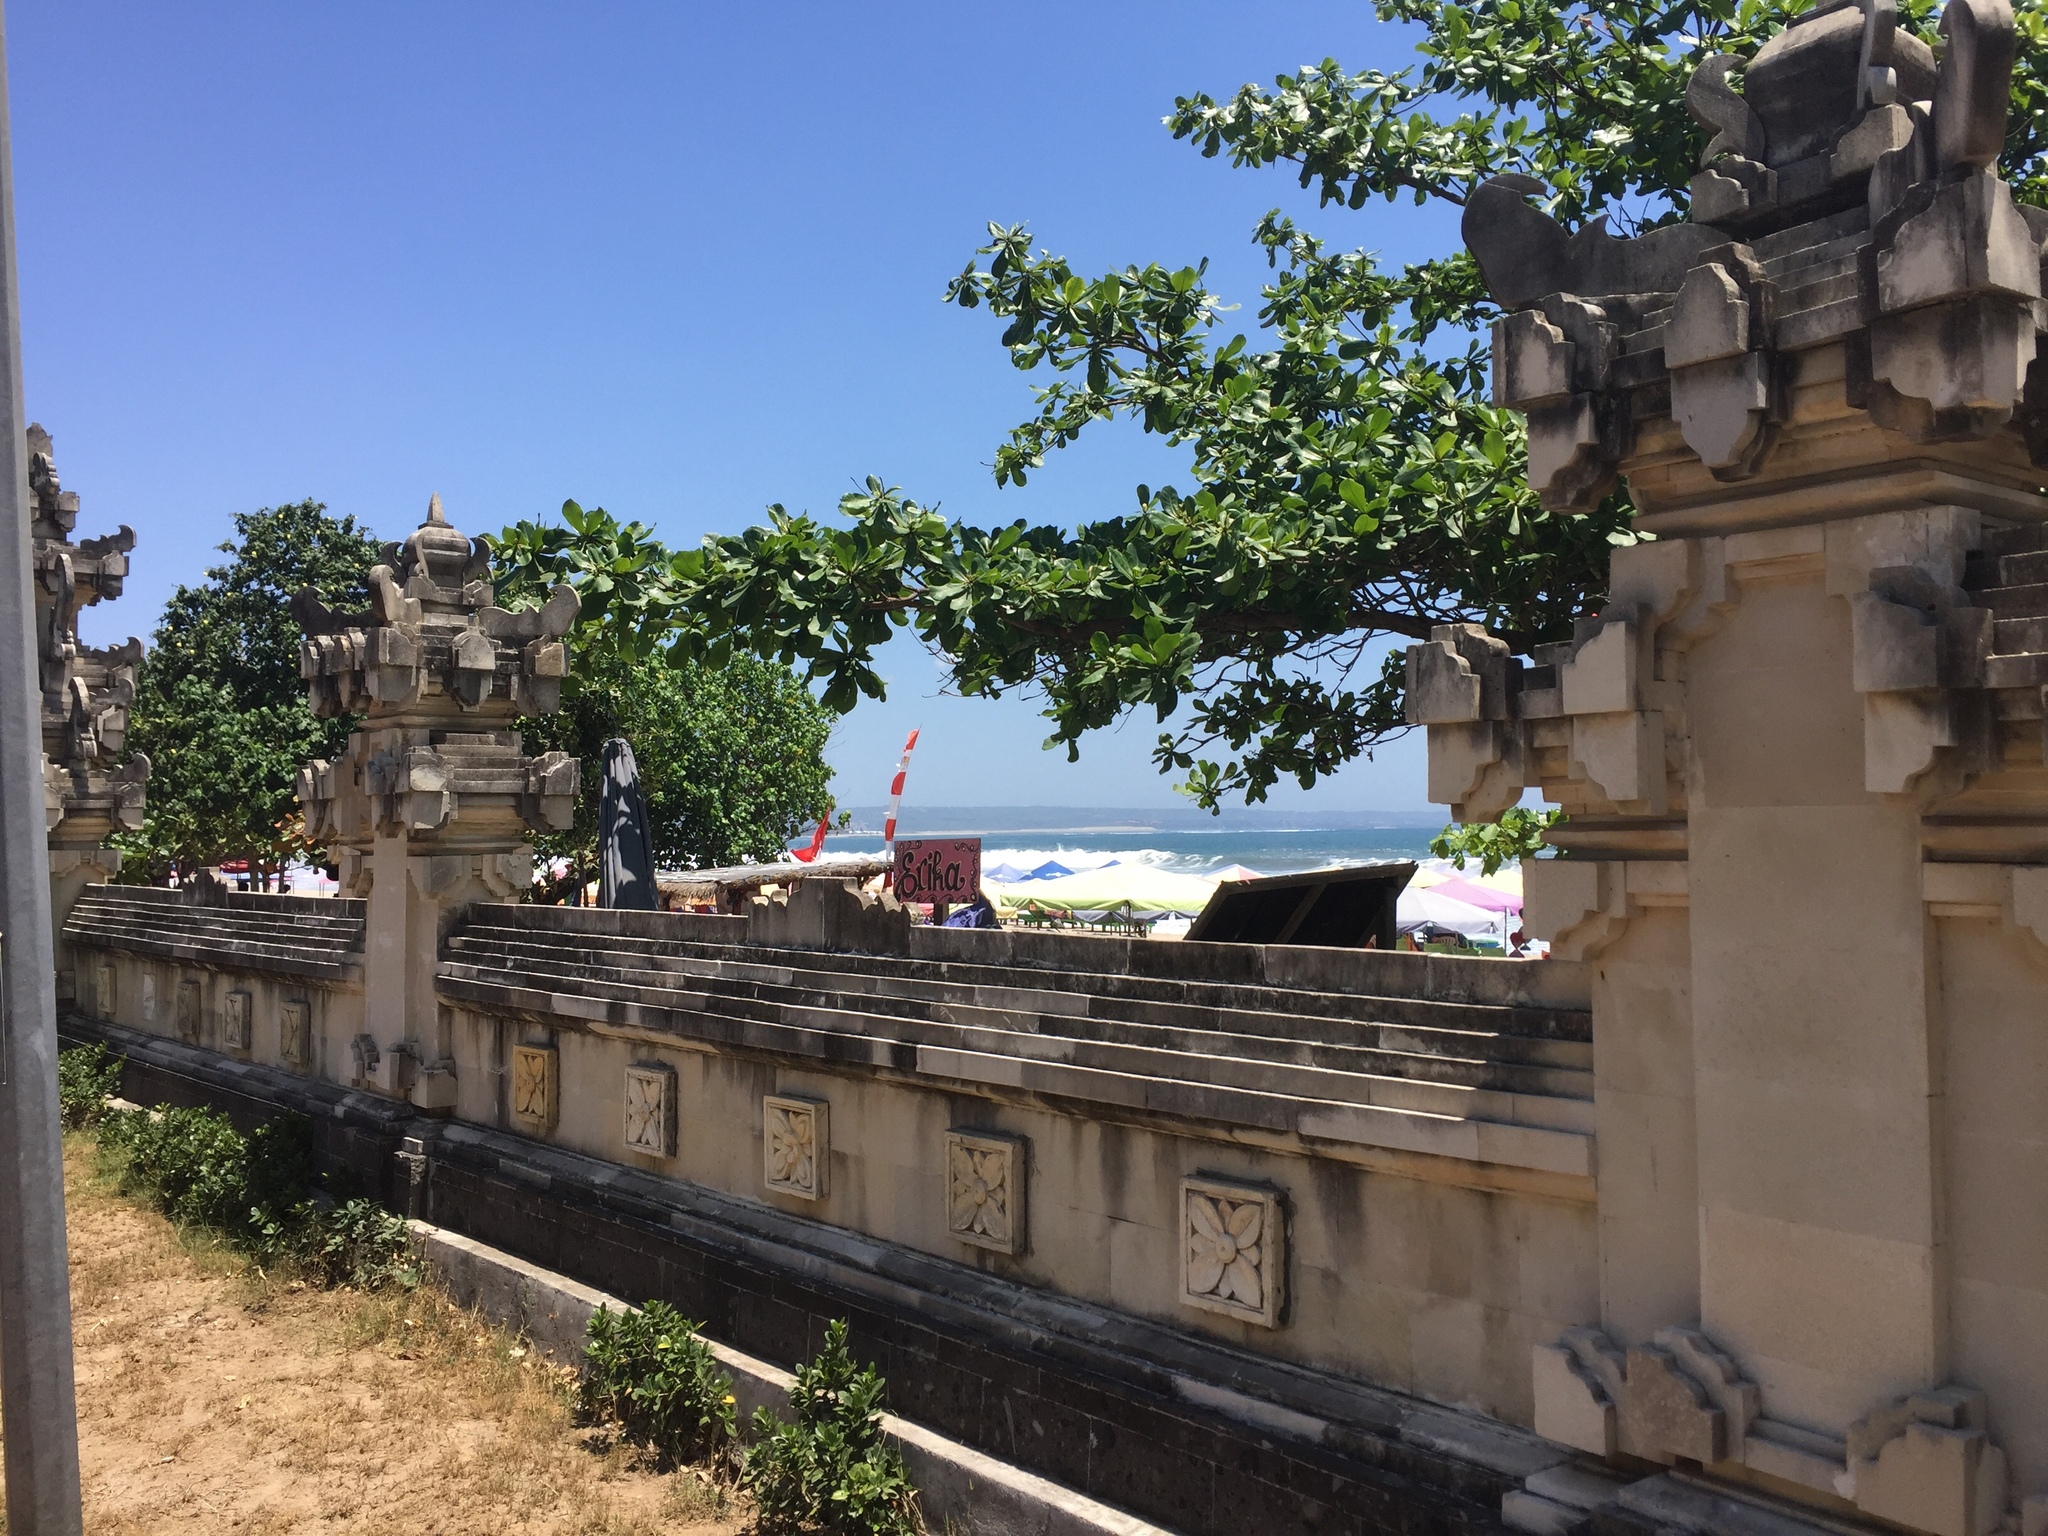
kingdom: Plantae
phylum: Tracheophyta
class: Magnoliopsida
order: Myrtales
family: Combretaceae
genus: Terminalia
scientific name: Terminalia catappa
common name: Tropical almond
